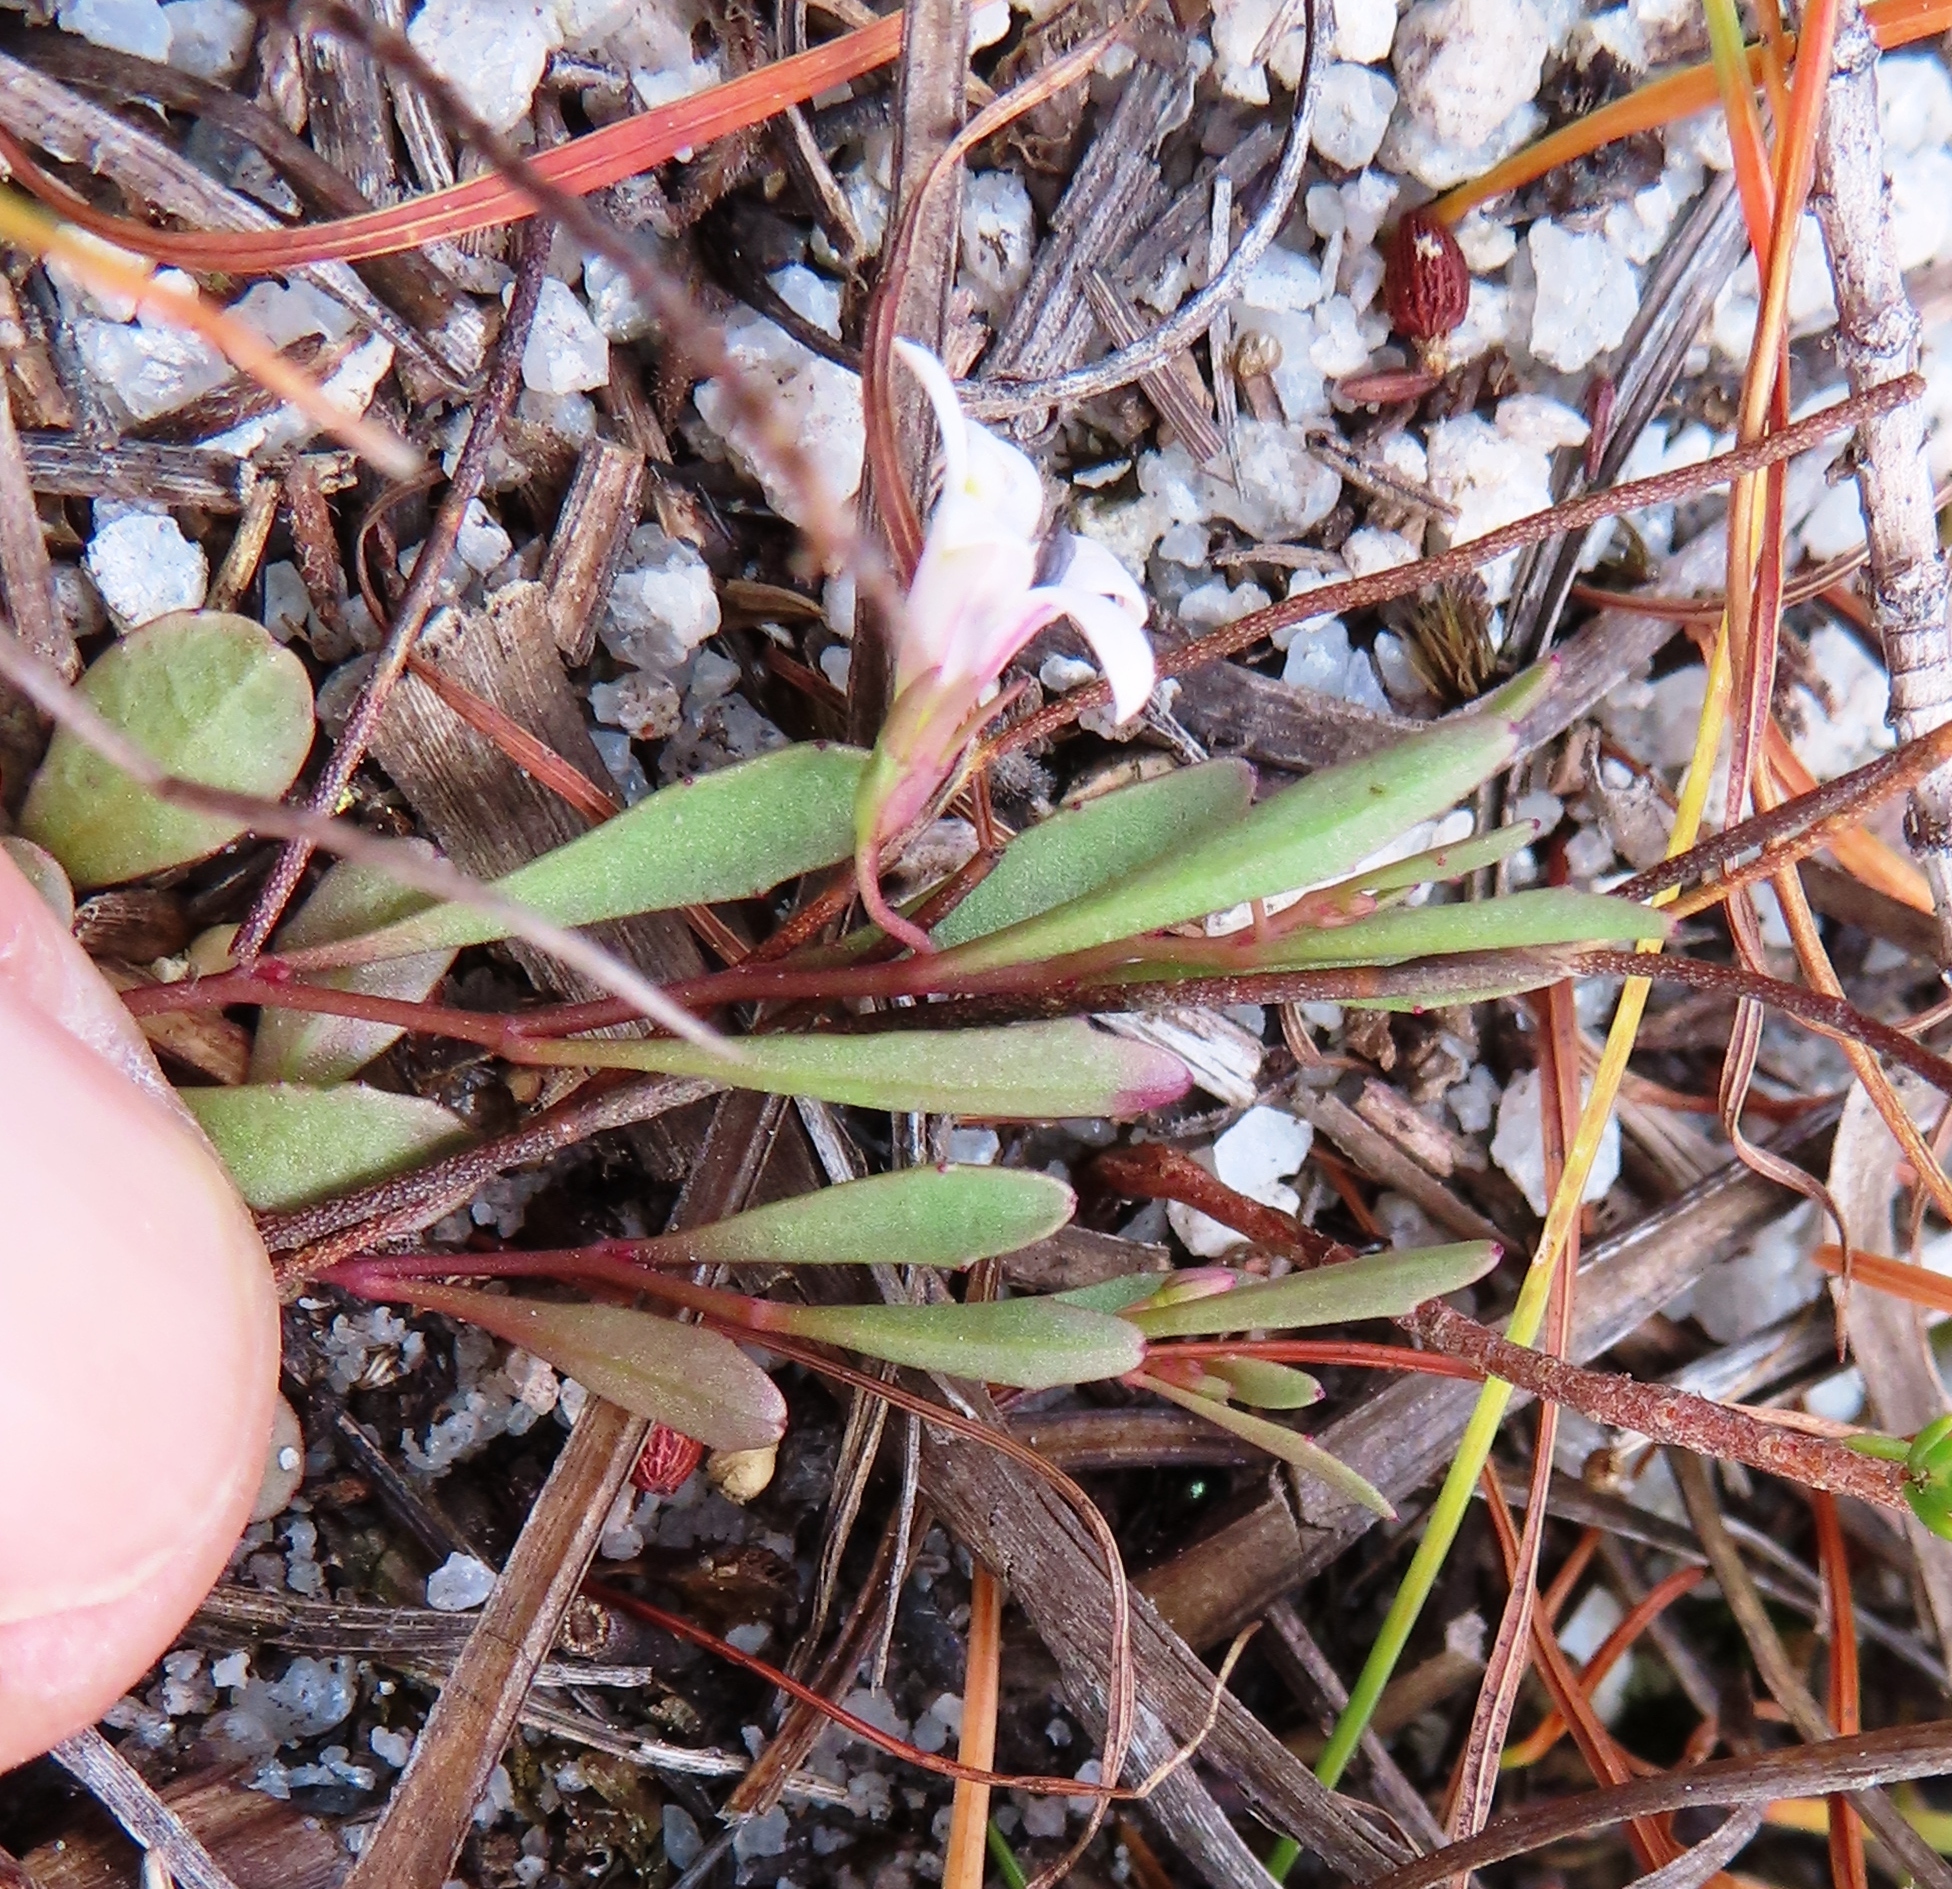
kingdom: Plantae
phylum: Tracheophyta
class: Magnoliopsida
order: Asterales
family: Campanulaceae
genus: Wimmerella
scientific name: Wimmerella secunda
